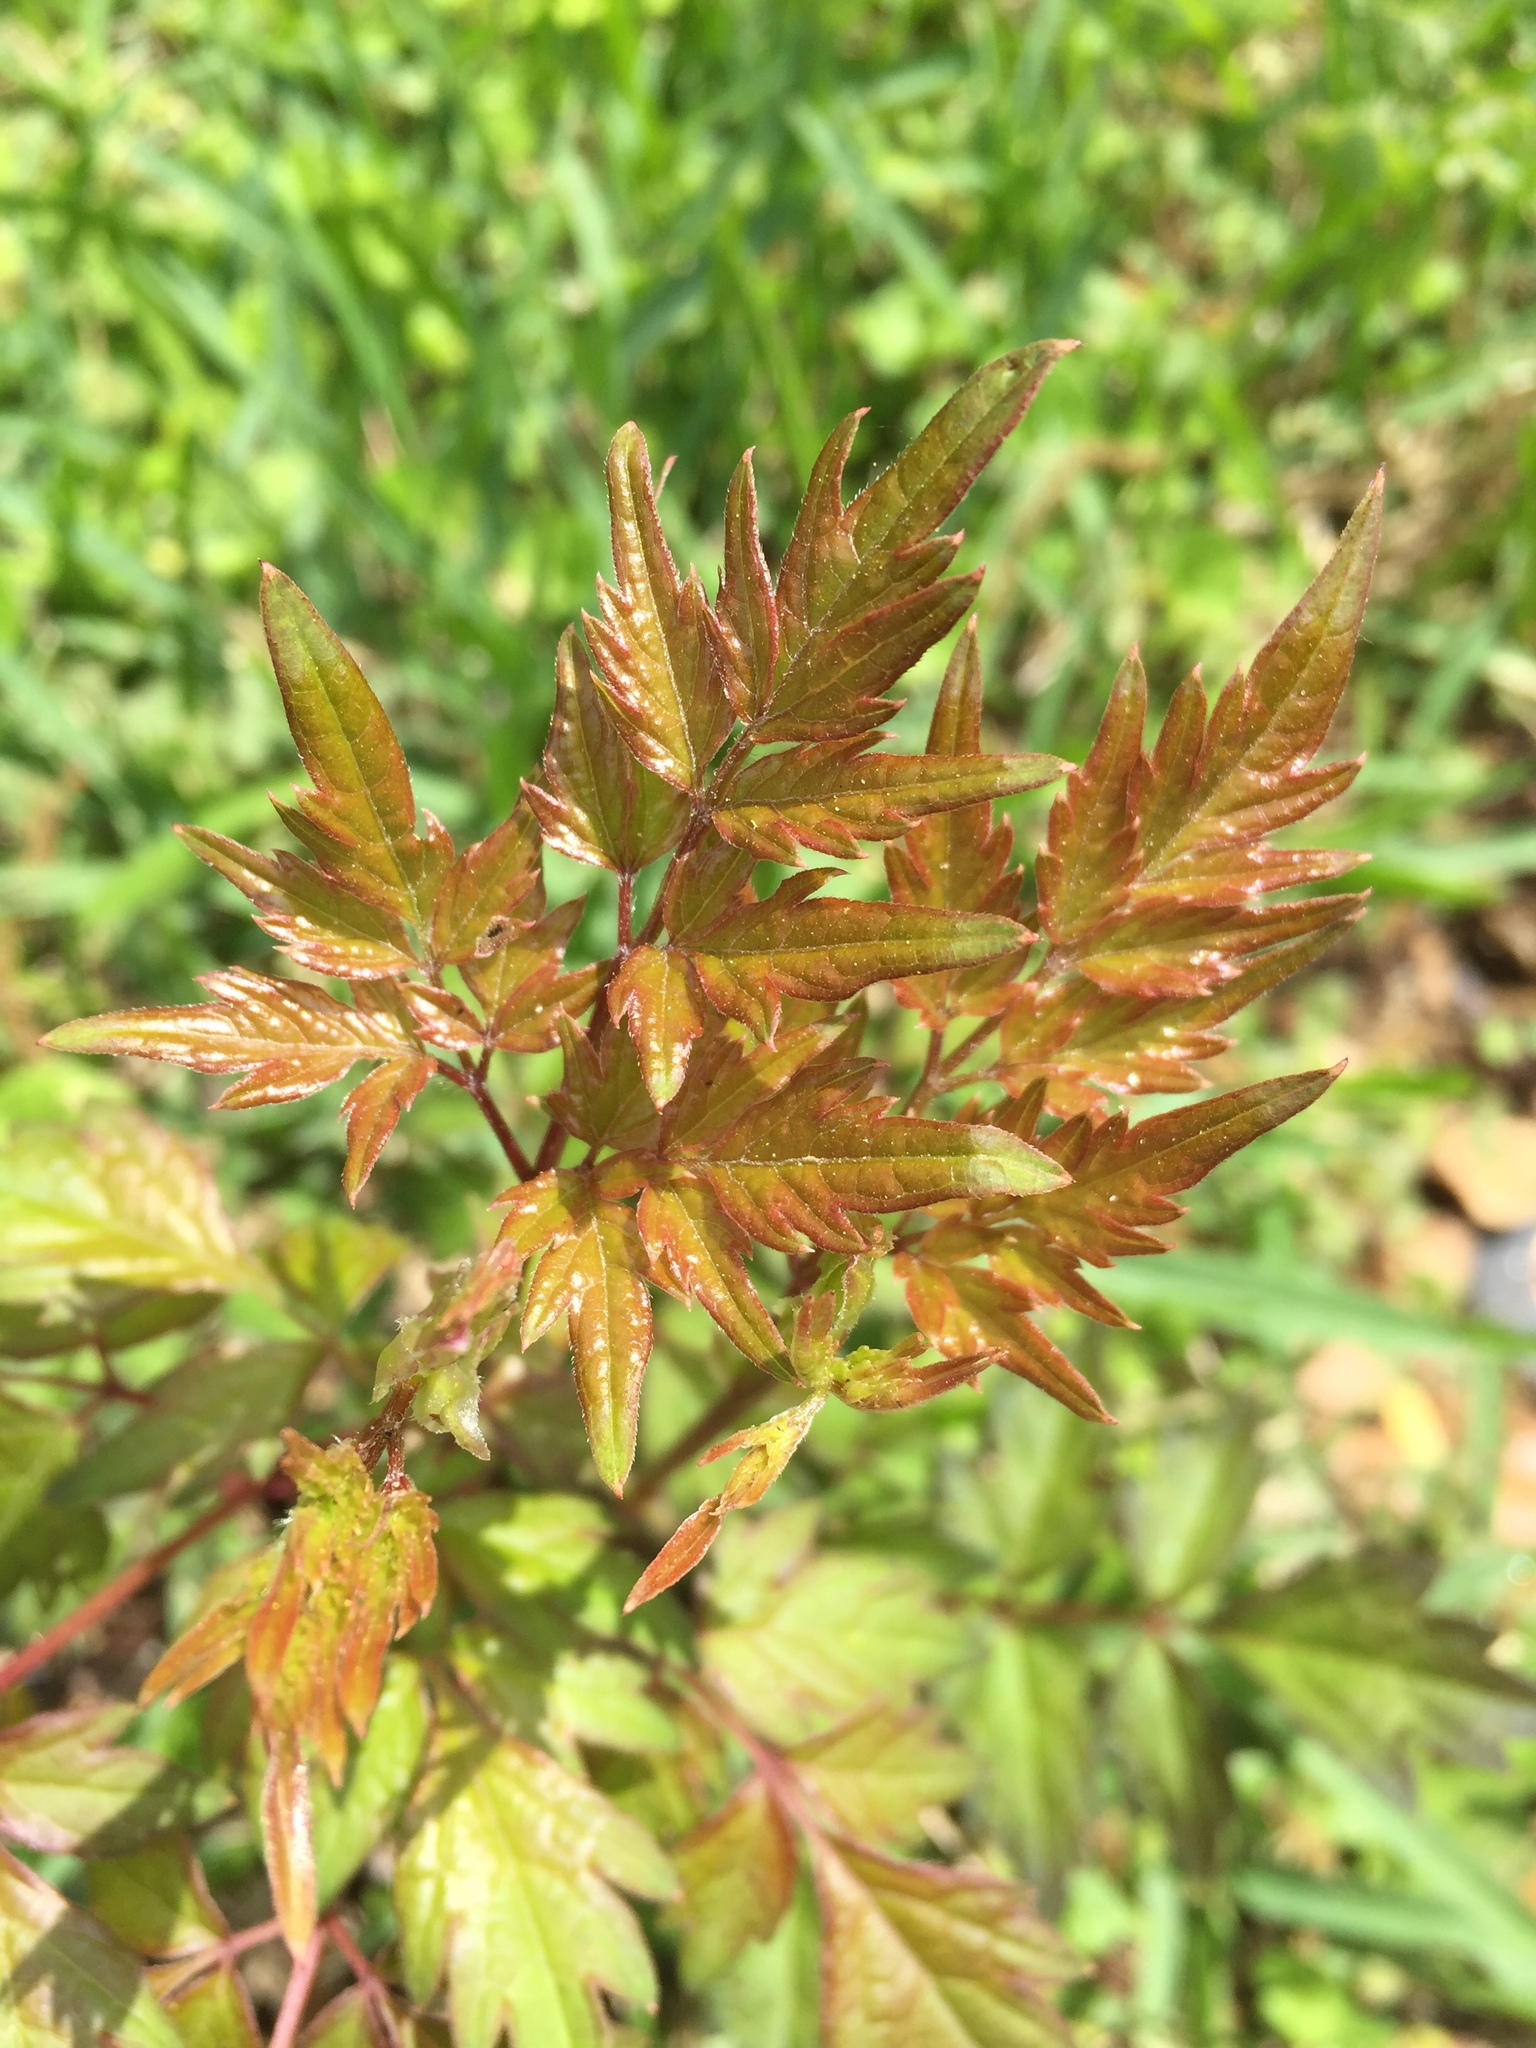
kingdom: Plantae
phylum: Tracheophyta
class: Magnoliopsida
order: Vitales
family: Vitaceae
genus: Nekemias
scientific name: Nekemias arborea
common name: Peppervine
